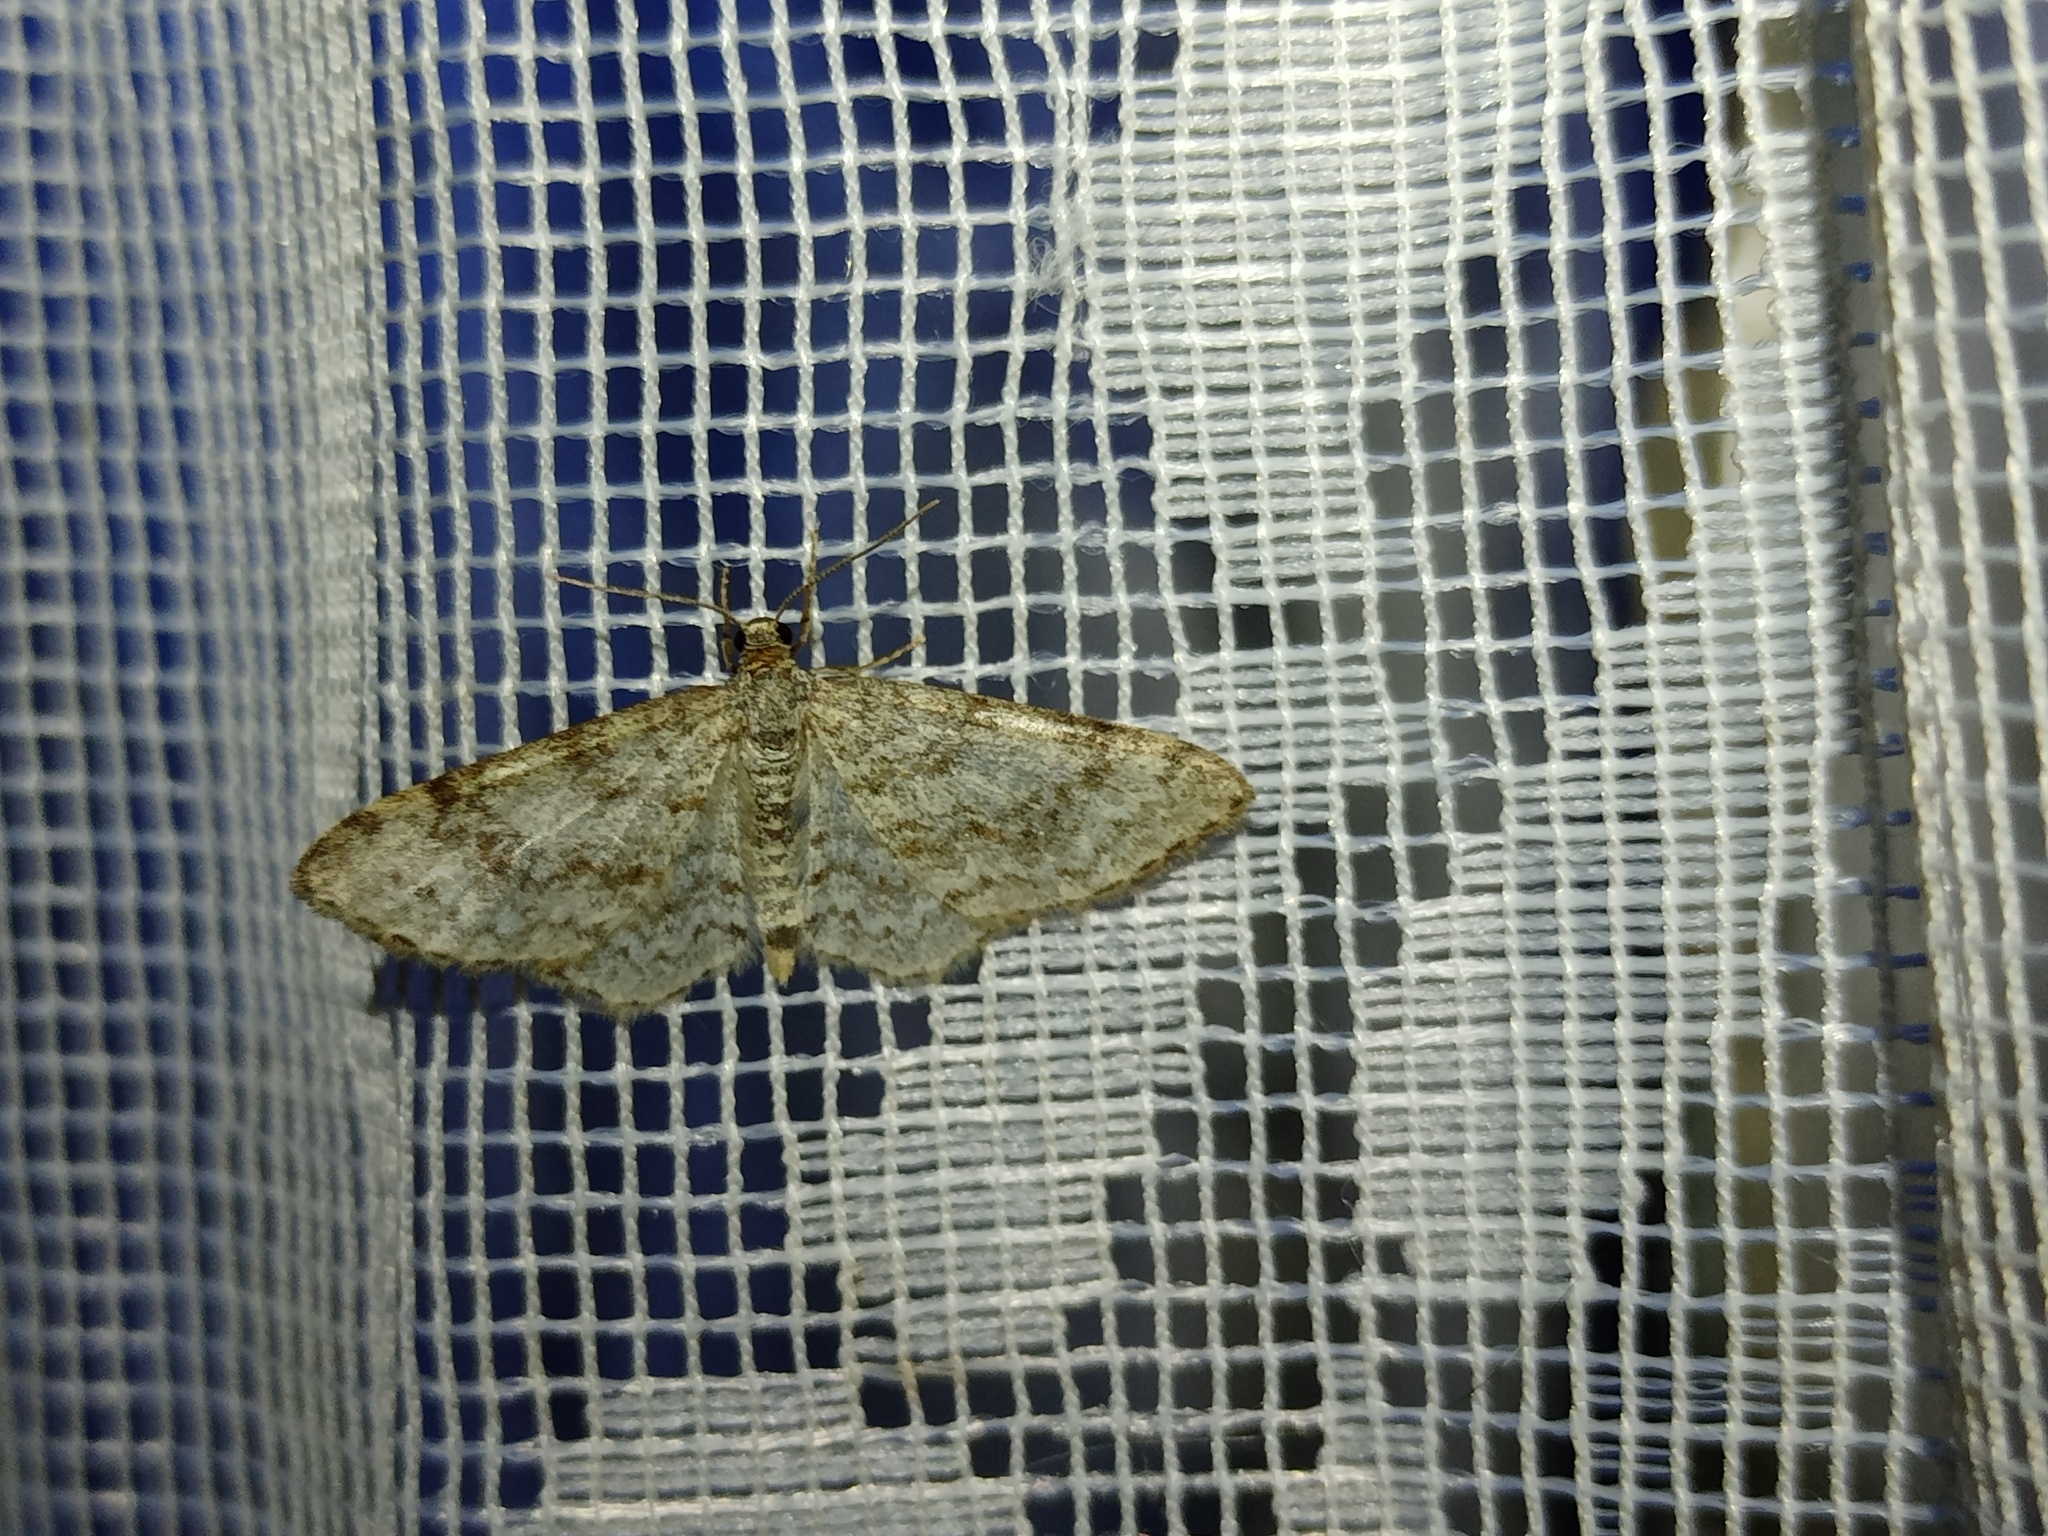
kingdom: Animalia
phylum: Arthropoda
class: Insecta
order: Lepidoptera
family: Geometridae
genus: Hydrelia
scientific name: Hydrelia sylvata
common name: Waved carpet
